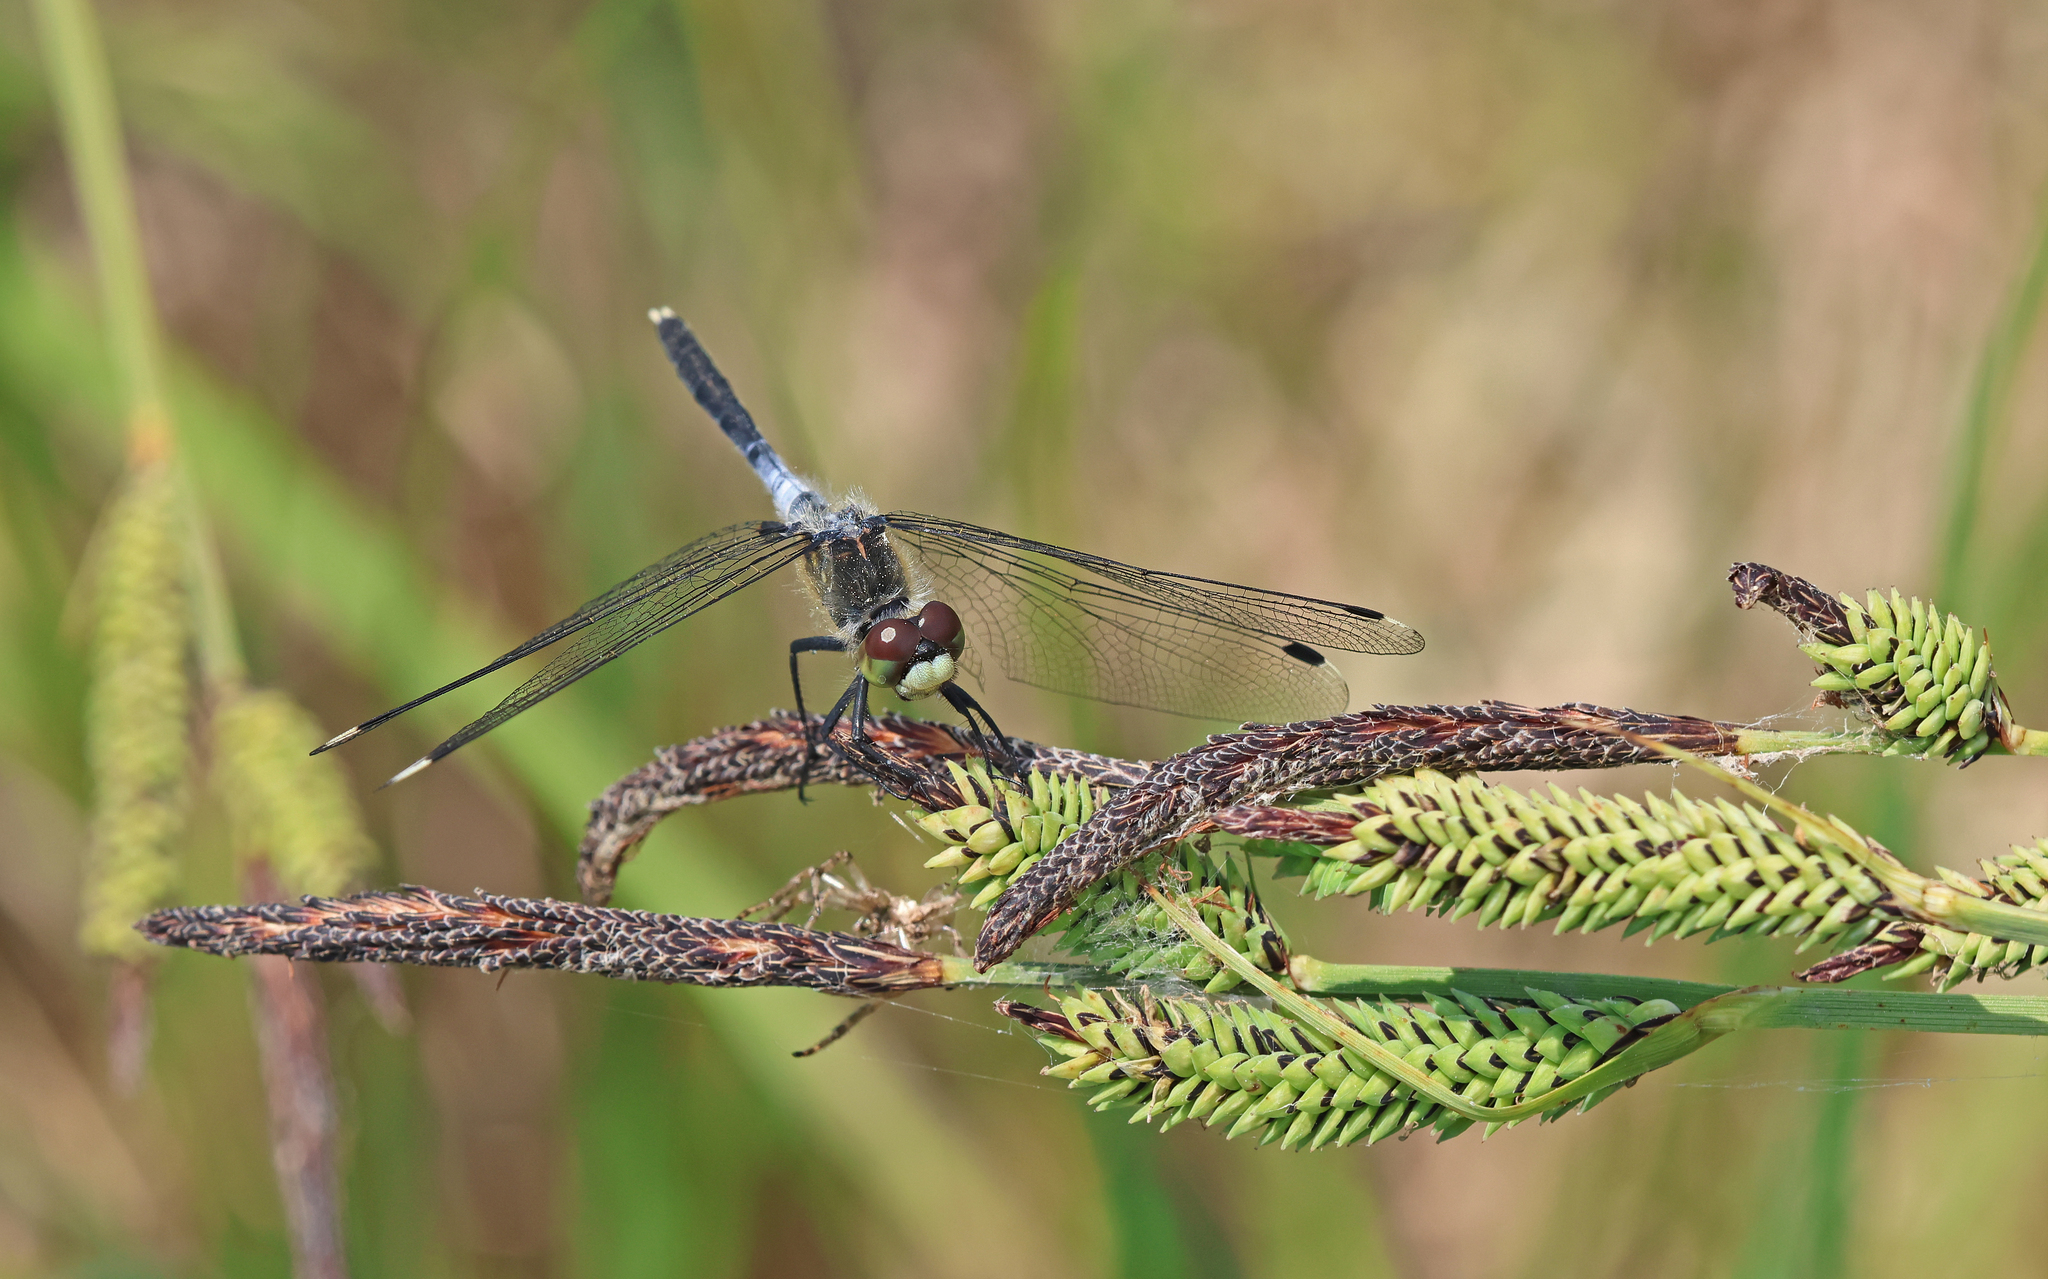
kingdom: Animalia
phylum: Arthropoda
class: Insecta
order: Odonata
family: Libellulidae
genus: Leucorrhinia
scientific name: Leucorrhinia albifrons
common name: Dark whiteface
